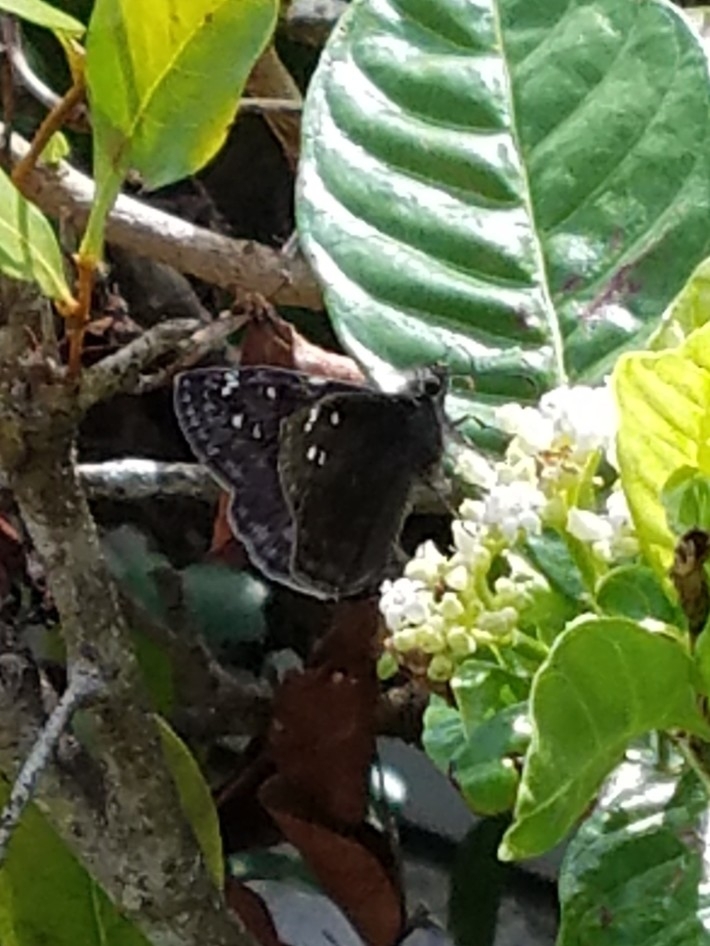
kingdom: Animalia
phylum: Arthropoda
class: Insecta
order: Lepidoptera
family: Hesperiidae
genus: Erynnis
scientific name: Erynnis horatius
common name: Horace's duskywing
